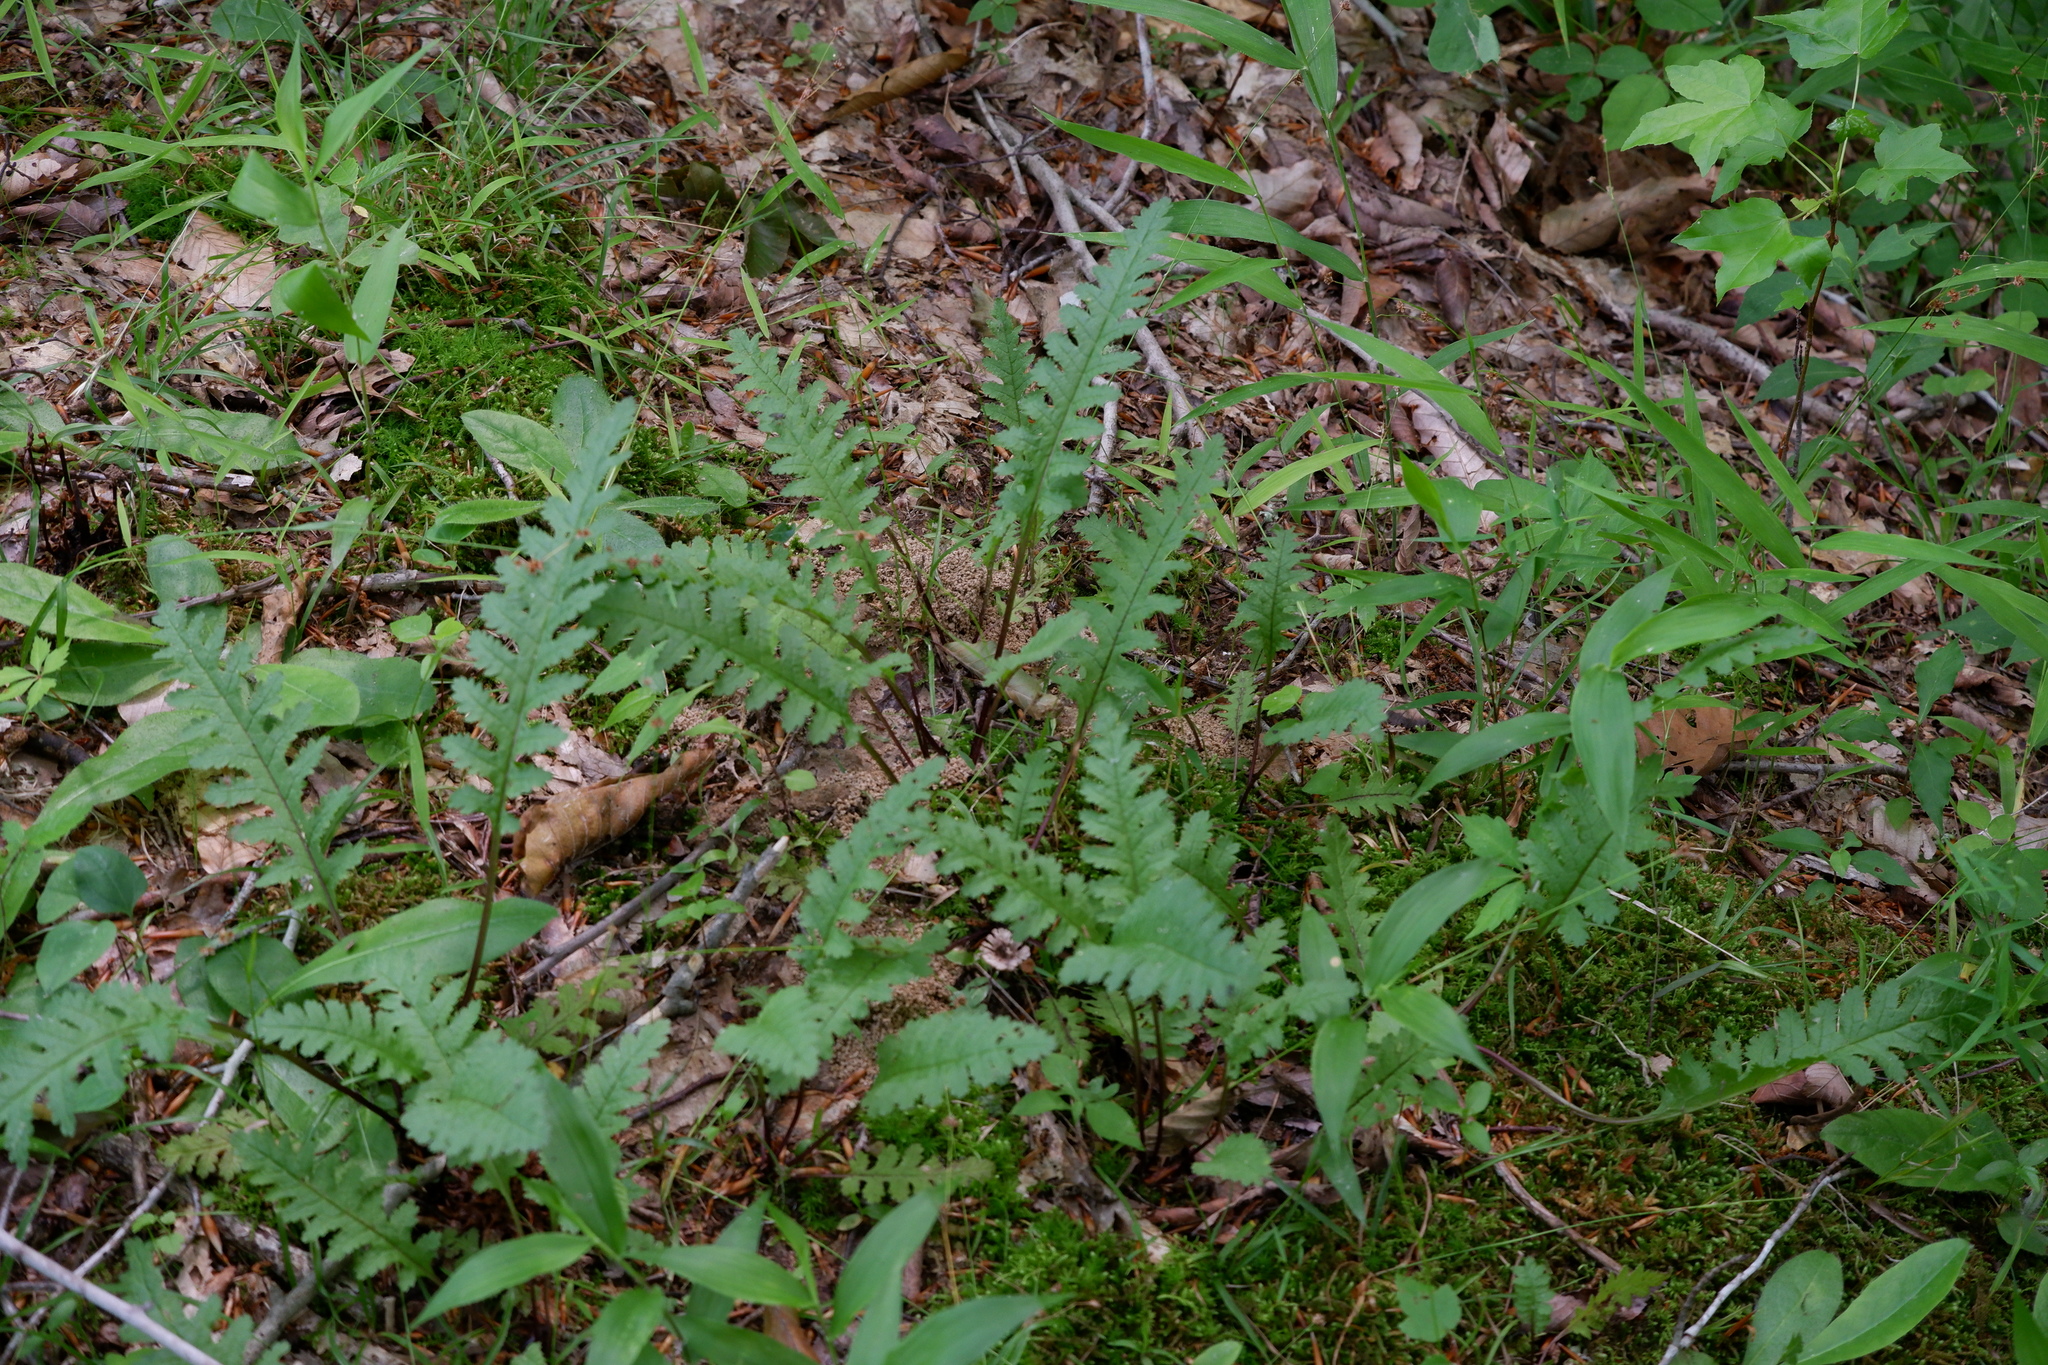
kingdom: Plantae
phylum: Tracheophyta
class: Magnoliopsida
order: Lamiales
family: Orobanchaceae
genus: Pedicularis
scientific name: Pedicularis canadensis
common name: Early lousewort
